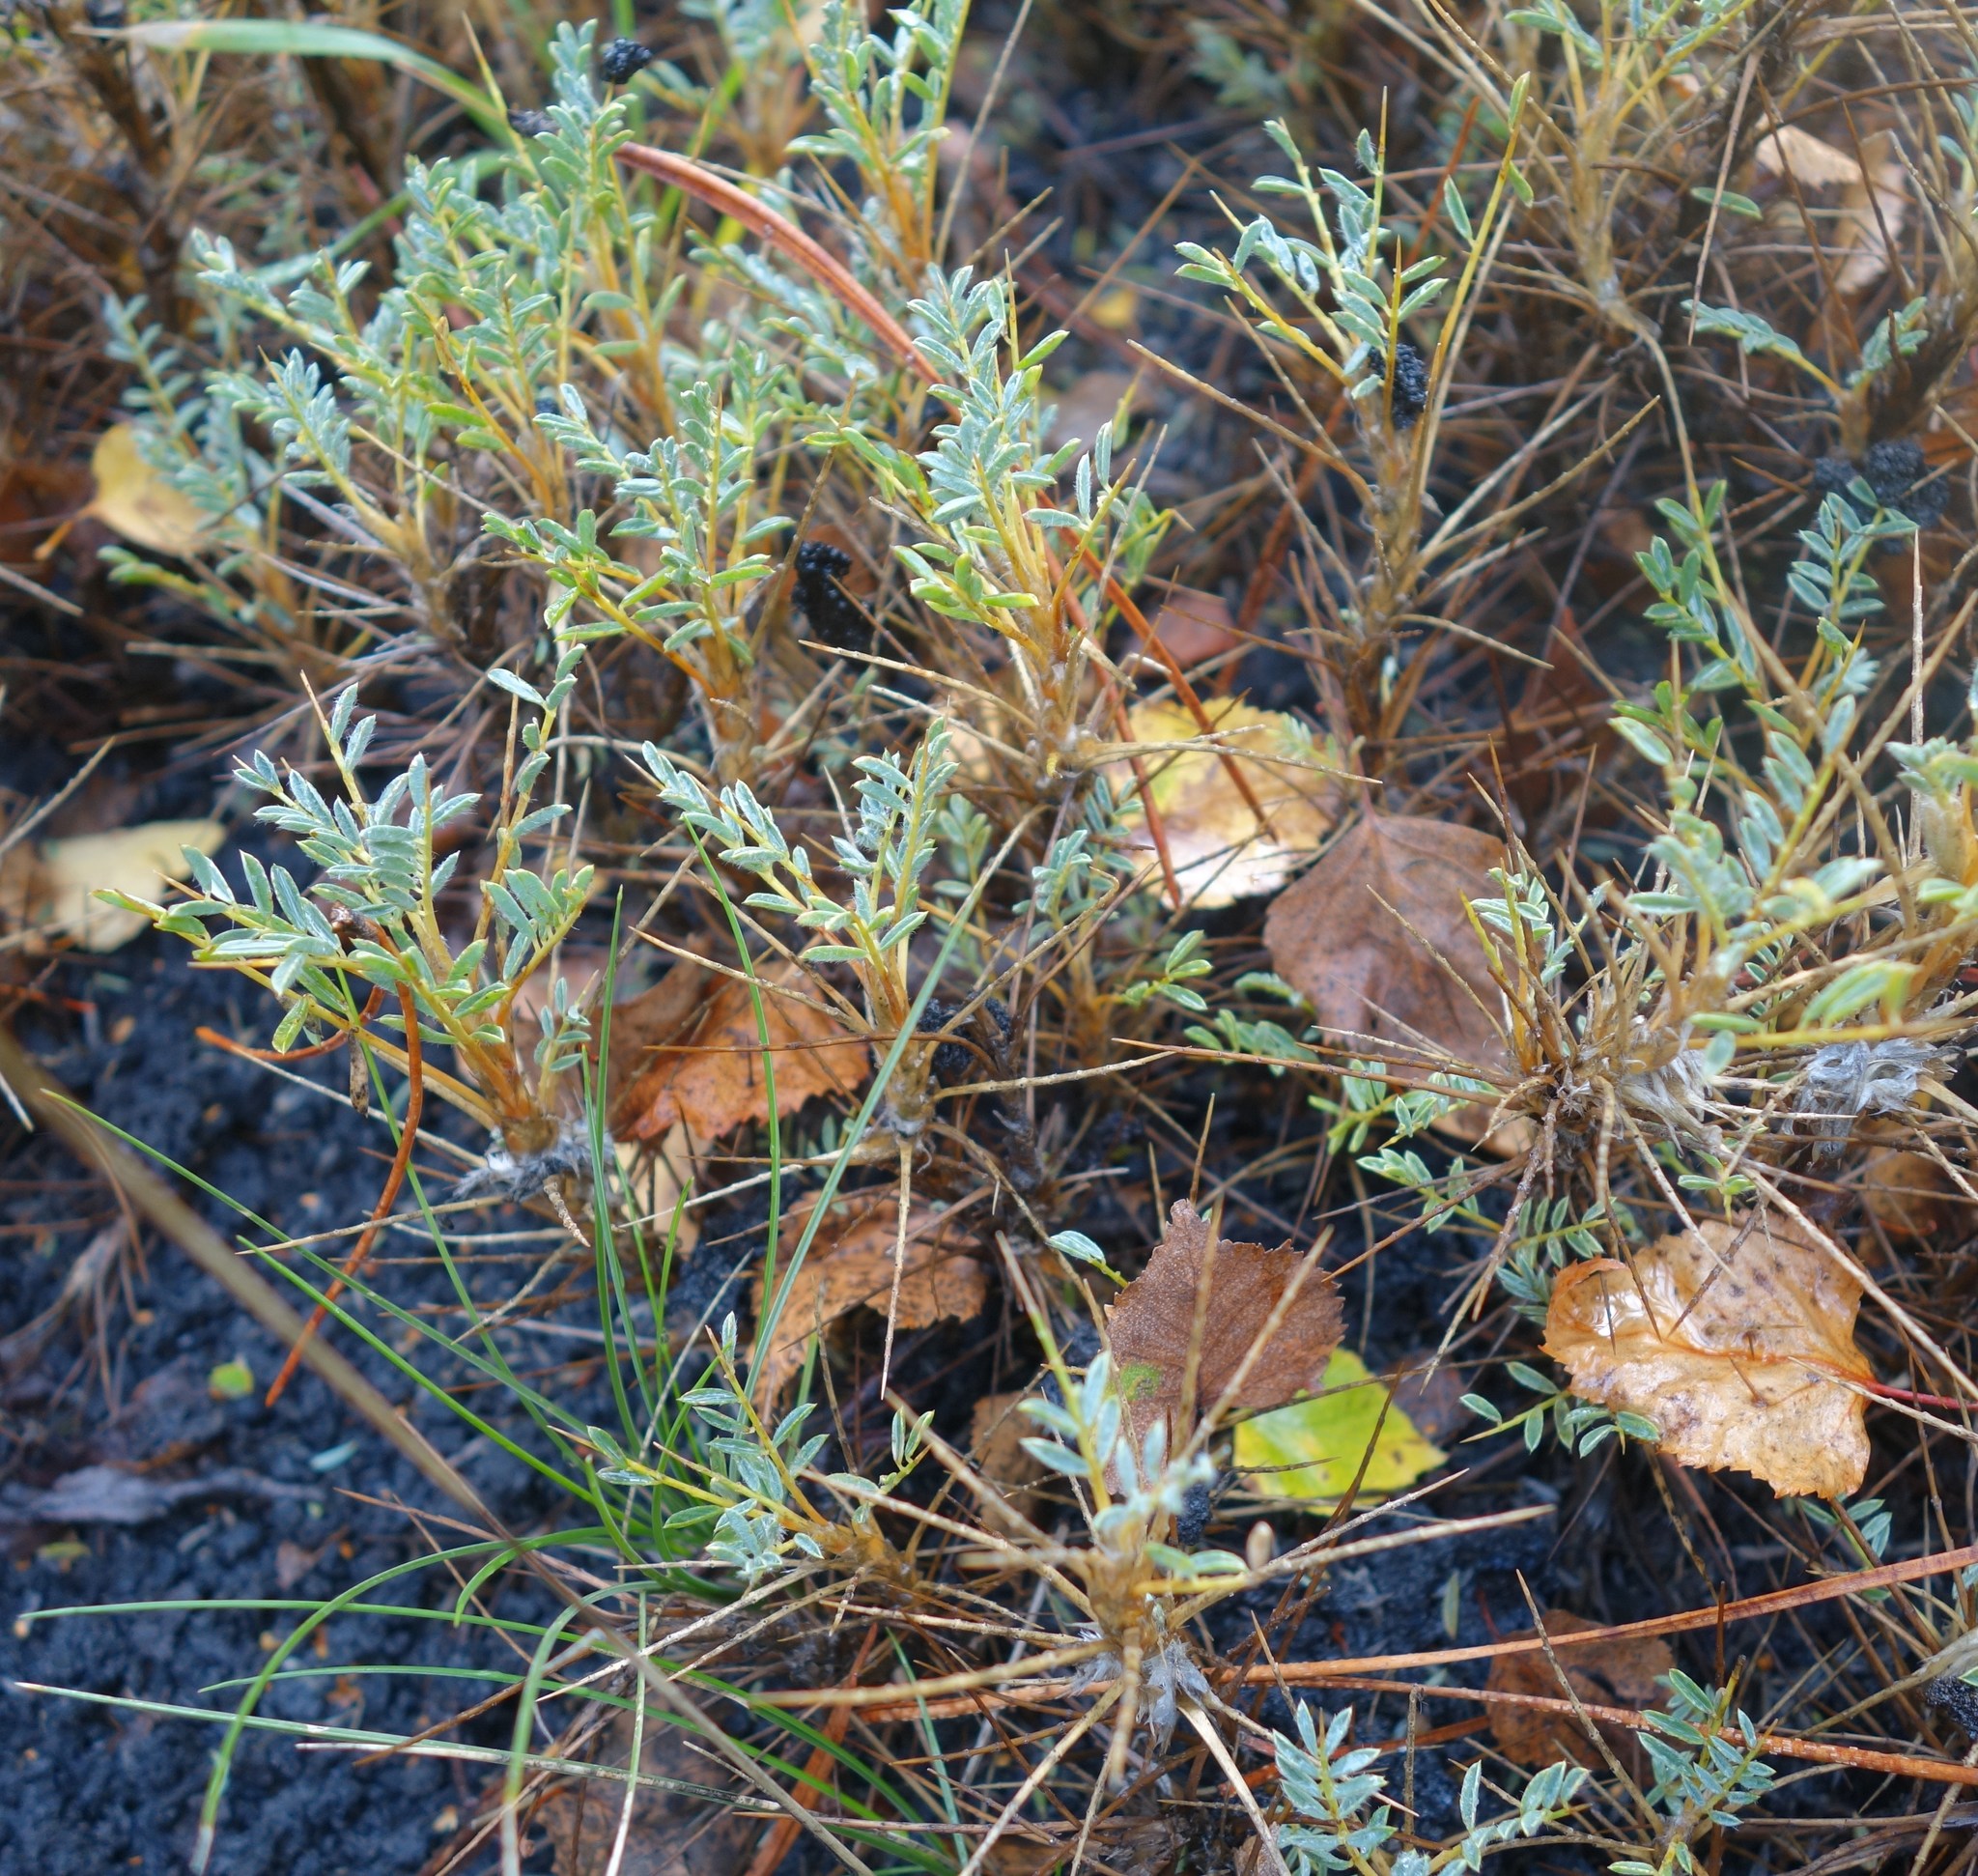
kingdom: Plantae
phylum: Tracheophyta
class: Magnoliopsida
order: Fabales
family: Fabaceae
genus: Astragalus
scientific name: Astragalus siculus
